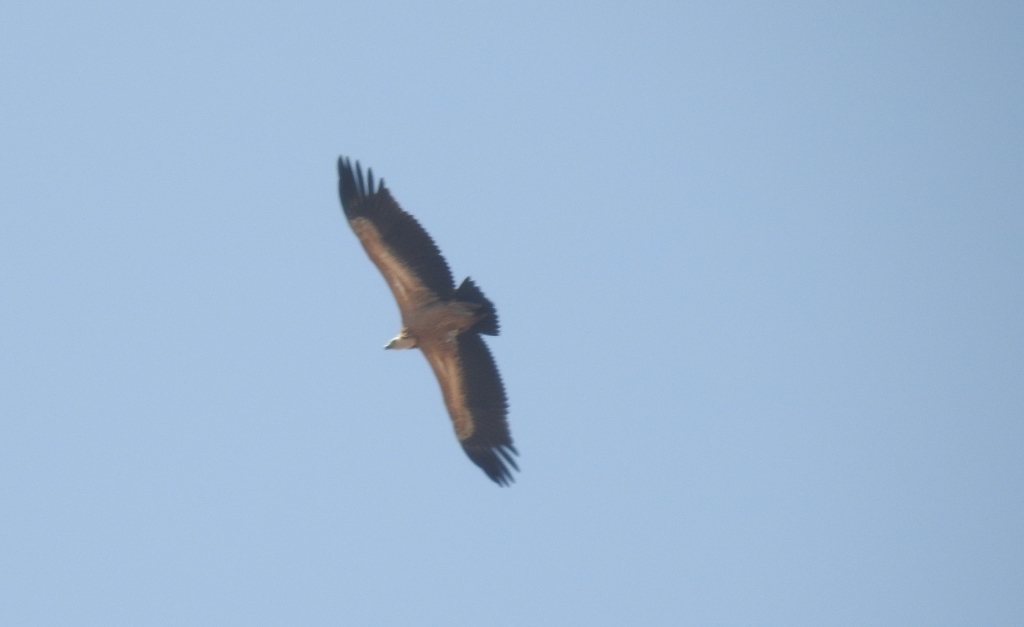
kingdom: Animalia
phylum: Chordata
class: Aves
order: Accipitriformes
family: Accipitridae
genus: Gyps
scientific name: Gyps fulvus
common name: Griffon vulture
